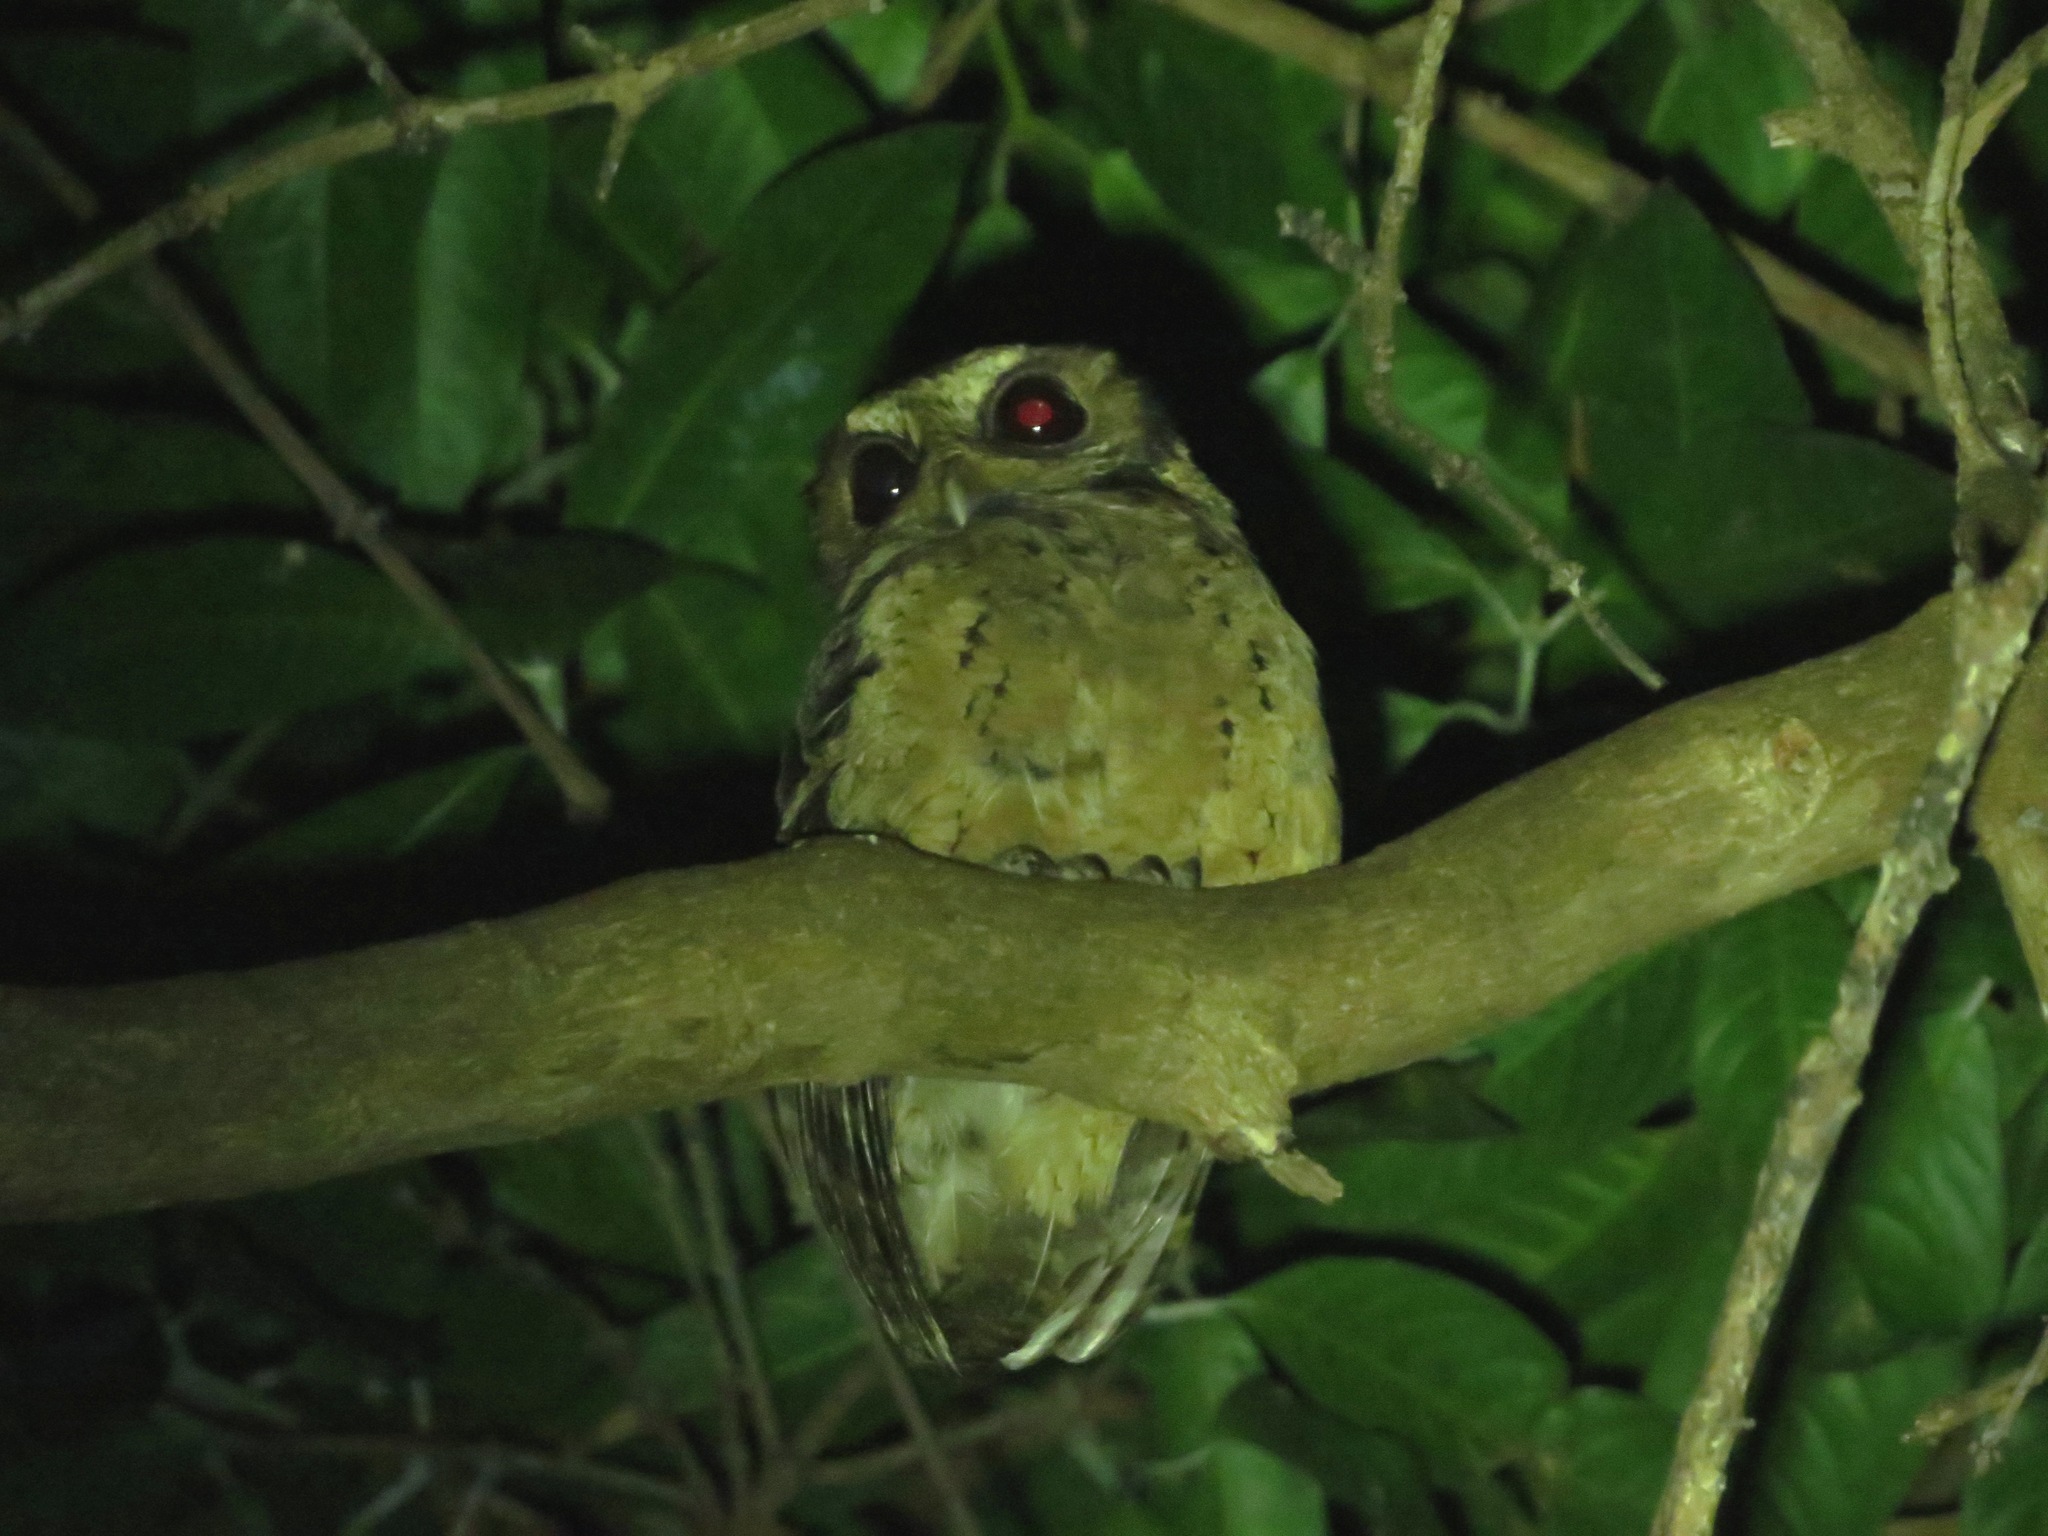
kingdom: Animalia
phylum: Chordata
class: Aves
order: Strigiformes
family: Strigidae
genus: Otus
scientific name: Otus lempiji
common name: Sunda scops-owl
